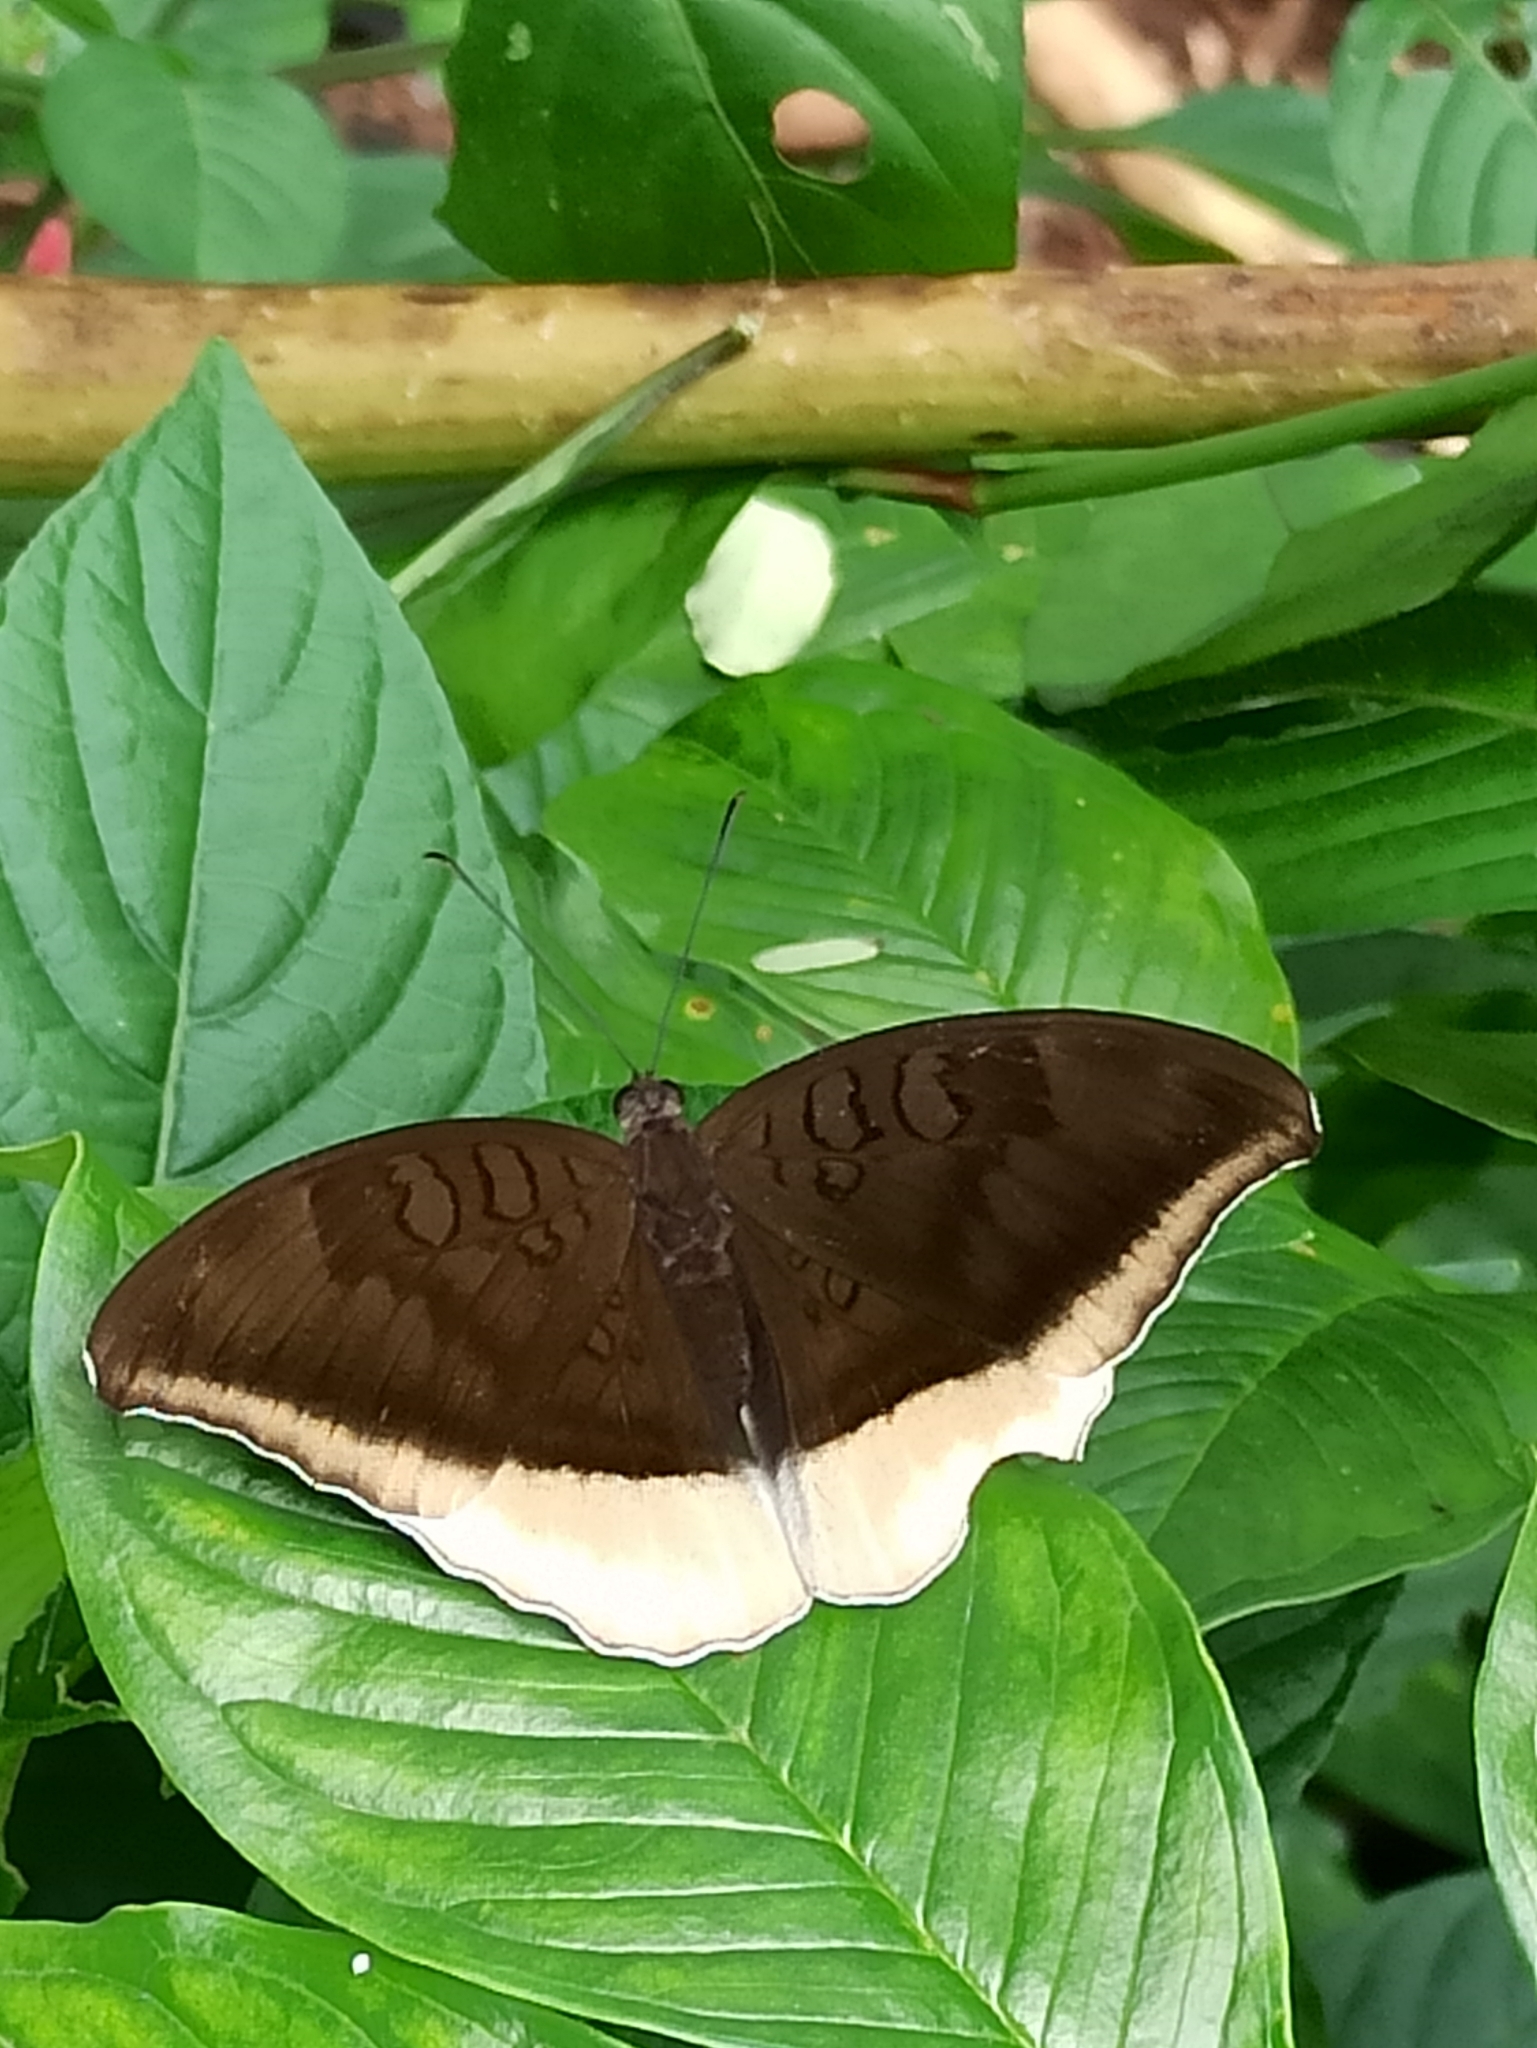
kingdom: Animalia
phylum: Arthropoda
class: Insecta
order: Lepidoptera
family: Nymphalidae
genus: Tanaecia
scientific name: Tanaecia lepidea
